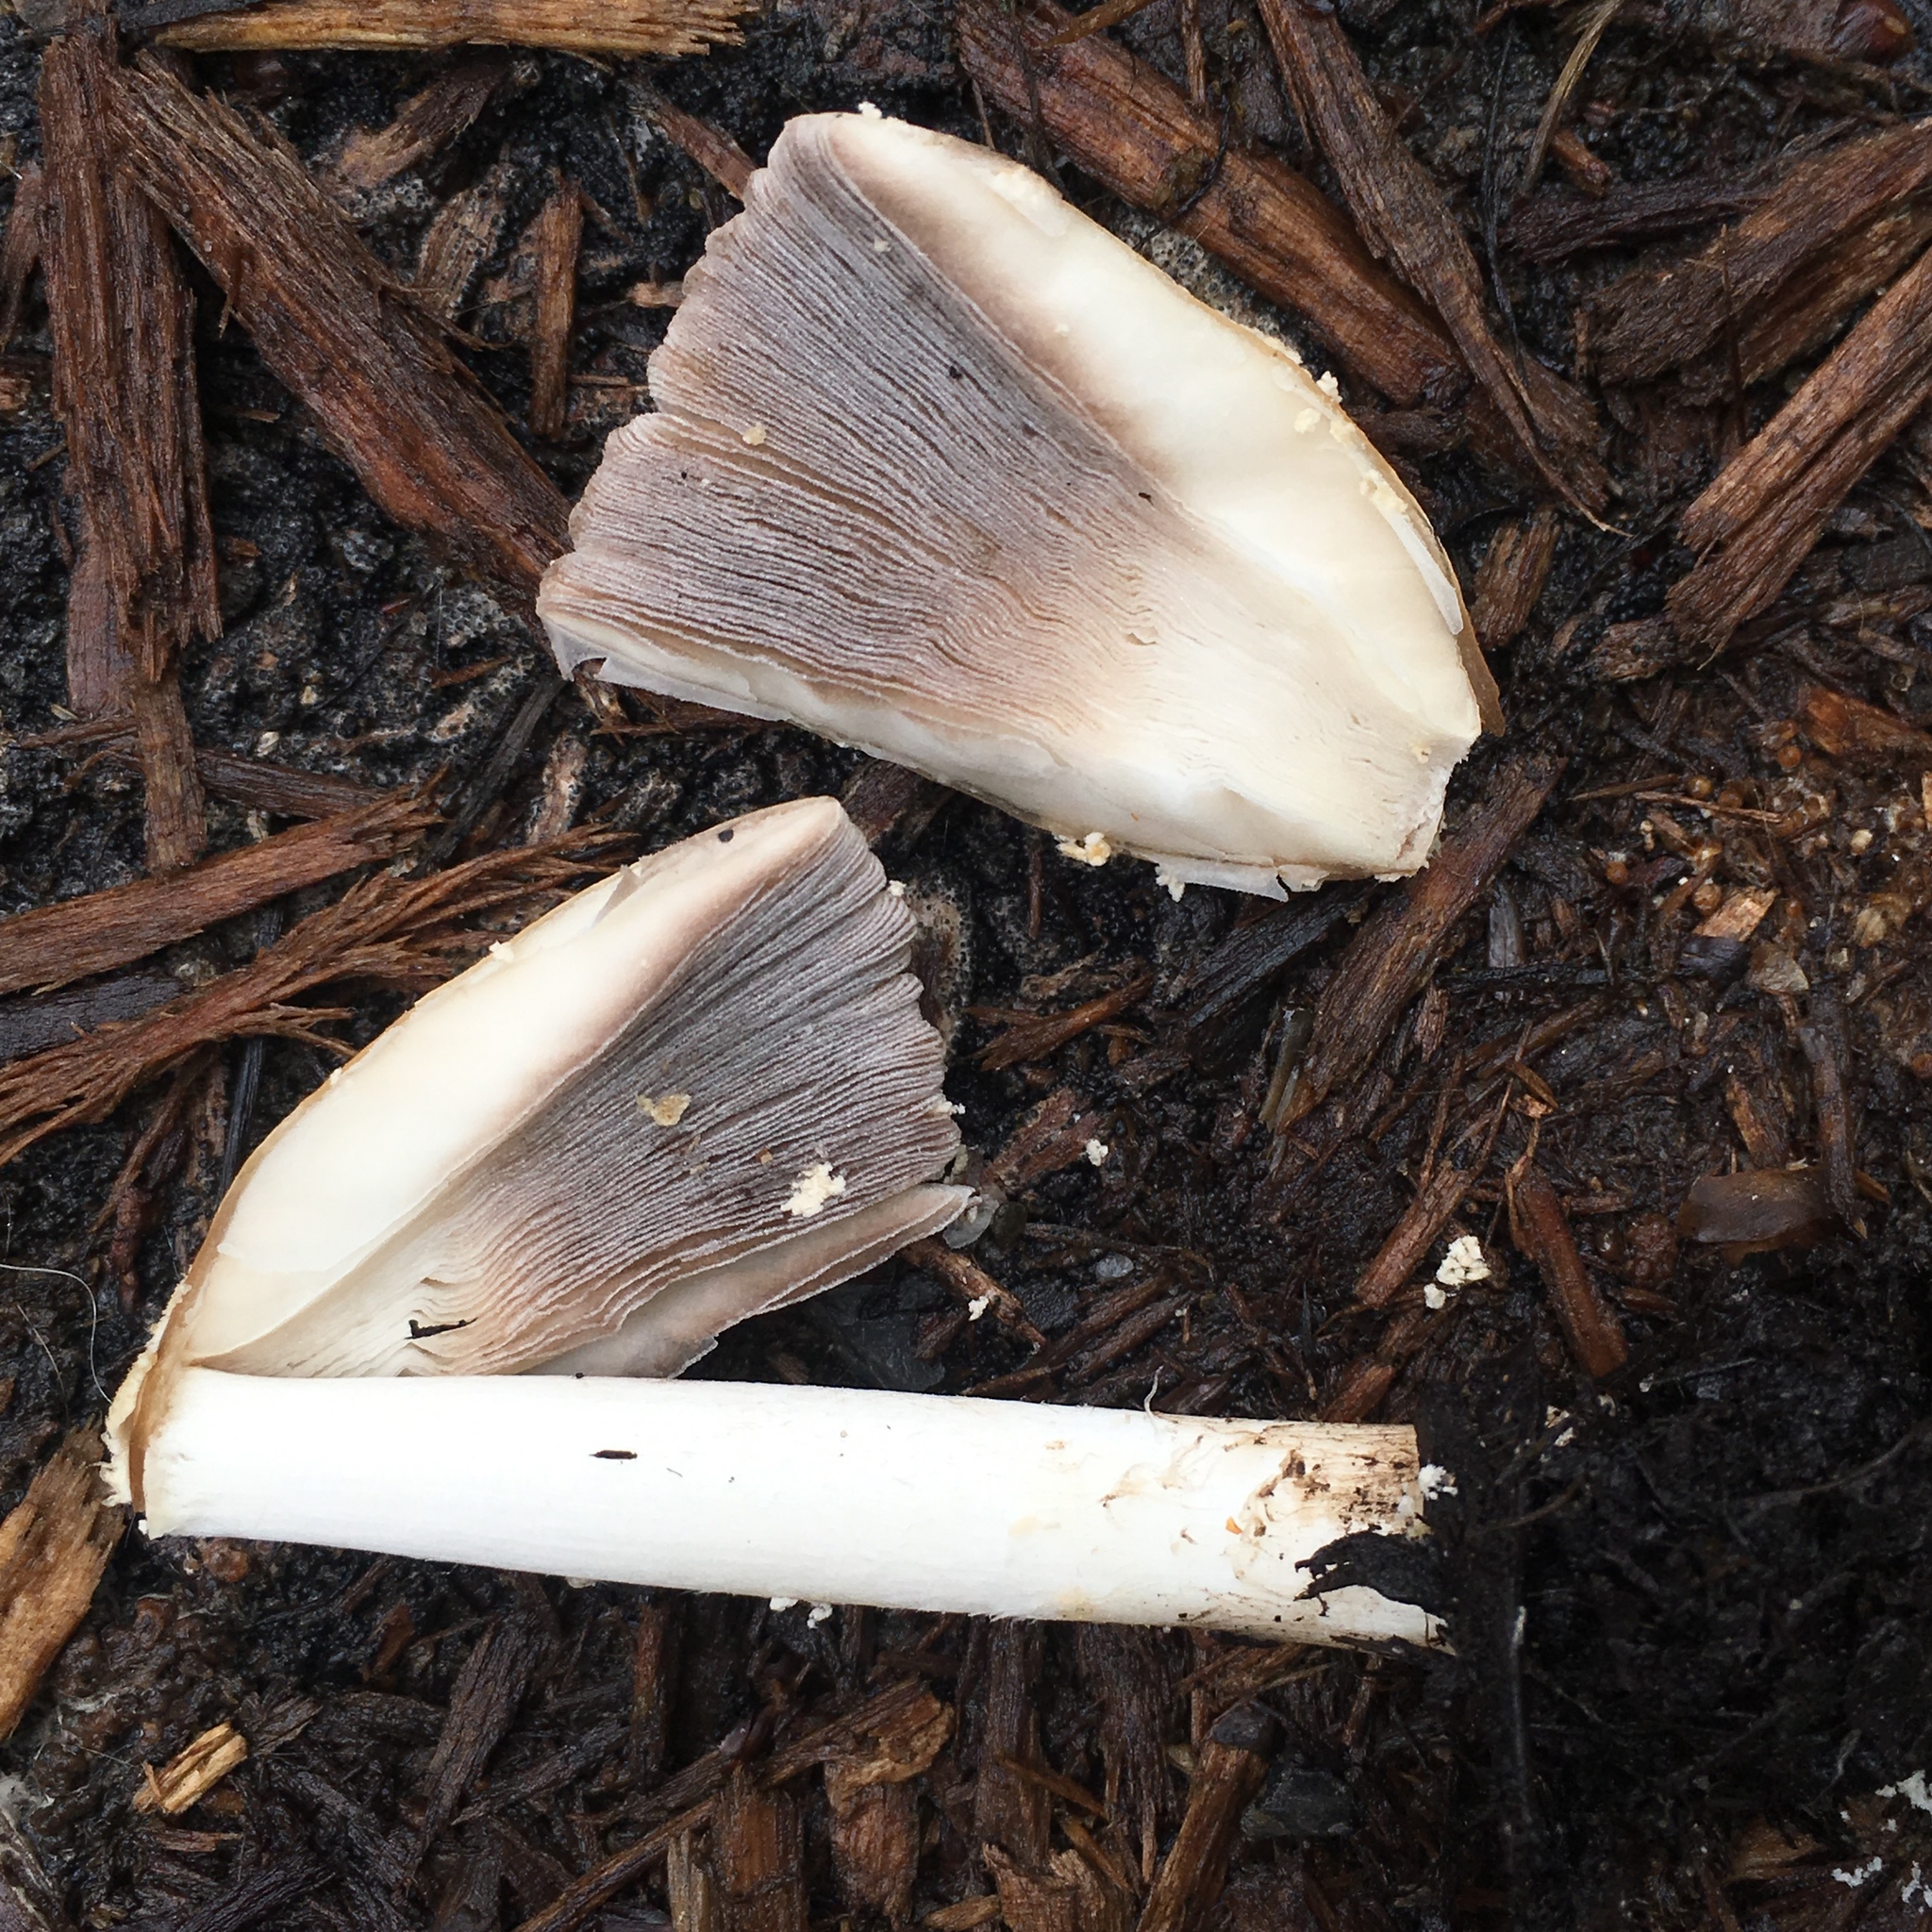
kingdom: Fungi
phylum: Basidiomycota
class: Agaricomycetes
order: Agaricales
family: Psathyrellaceae
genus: Coprinellus
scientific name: Coprinellus micaceus
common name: Glistening ink-cap
